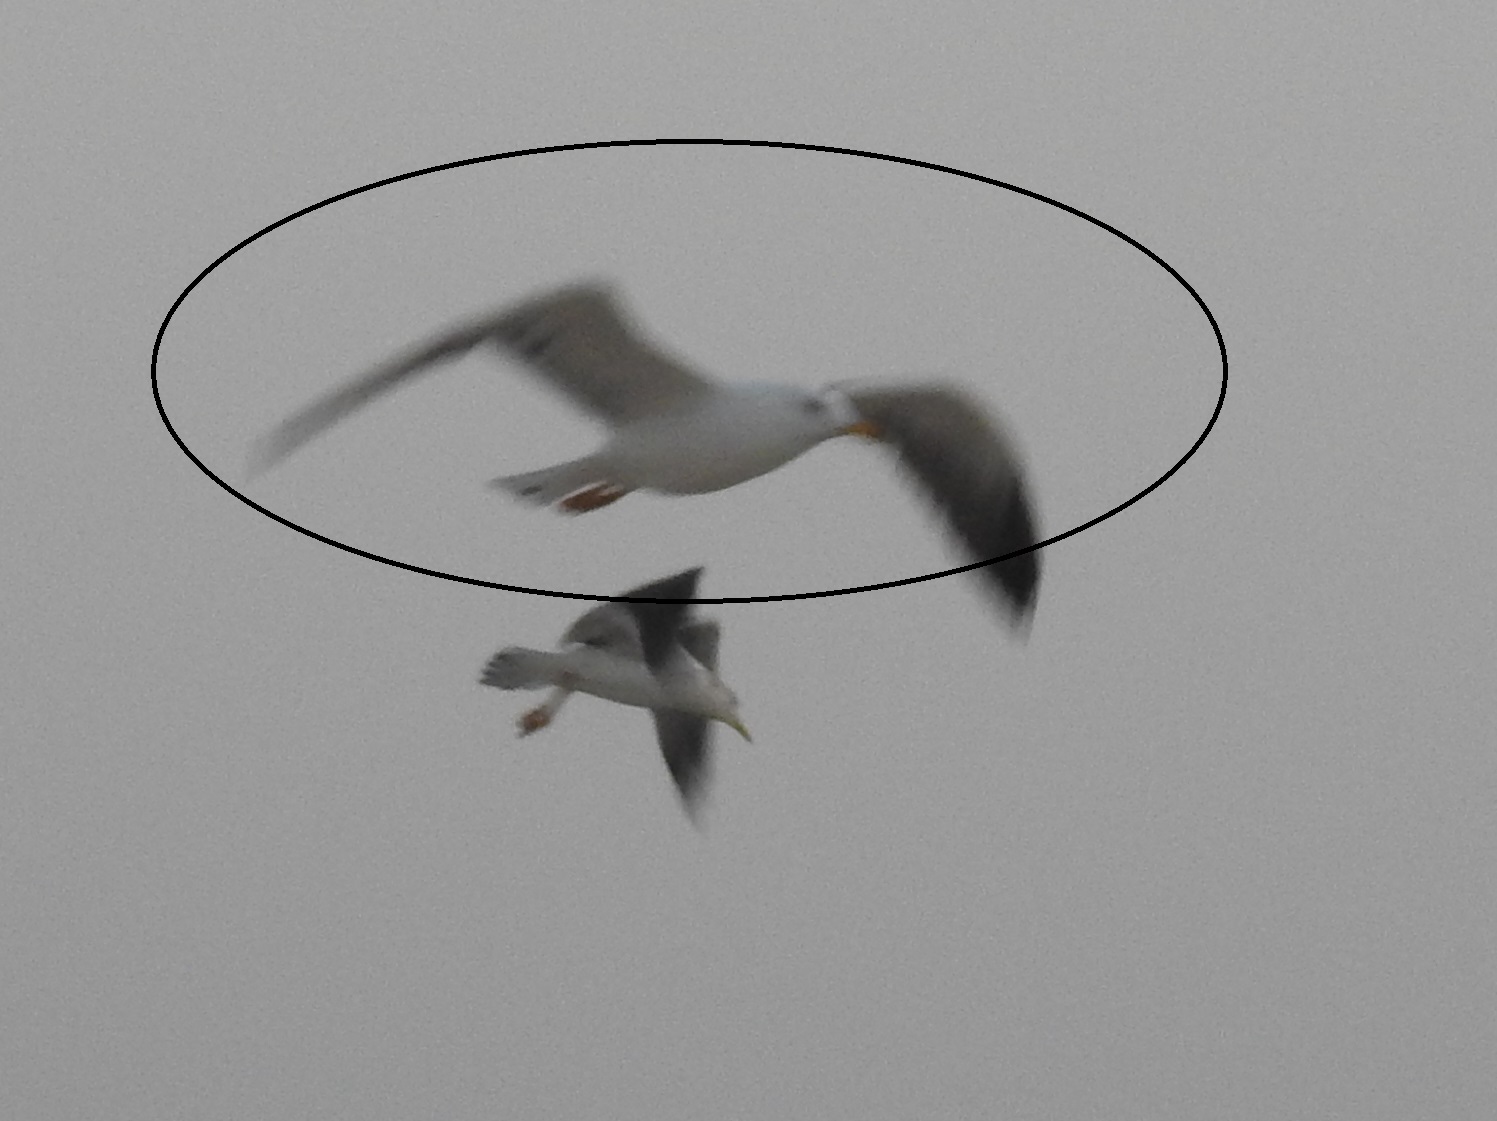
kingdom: Animalia
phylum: Chordata
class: Aves
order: Charadriiformes
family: Laridae
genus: Larus
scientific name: Larus fuscus
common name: Lesser black-backed gull
